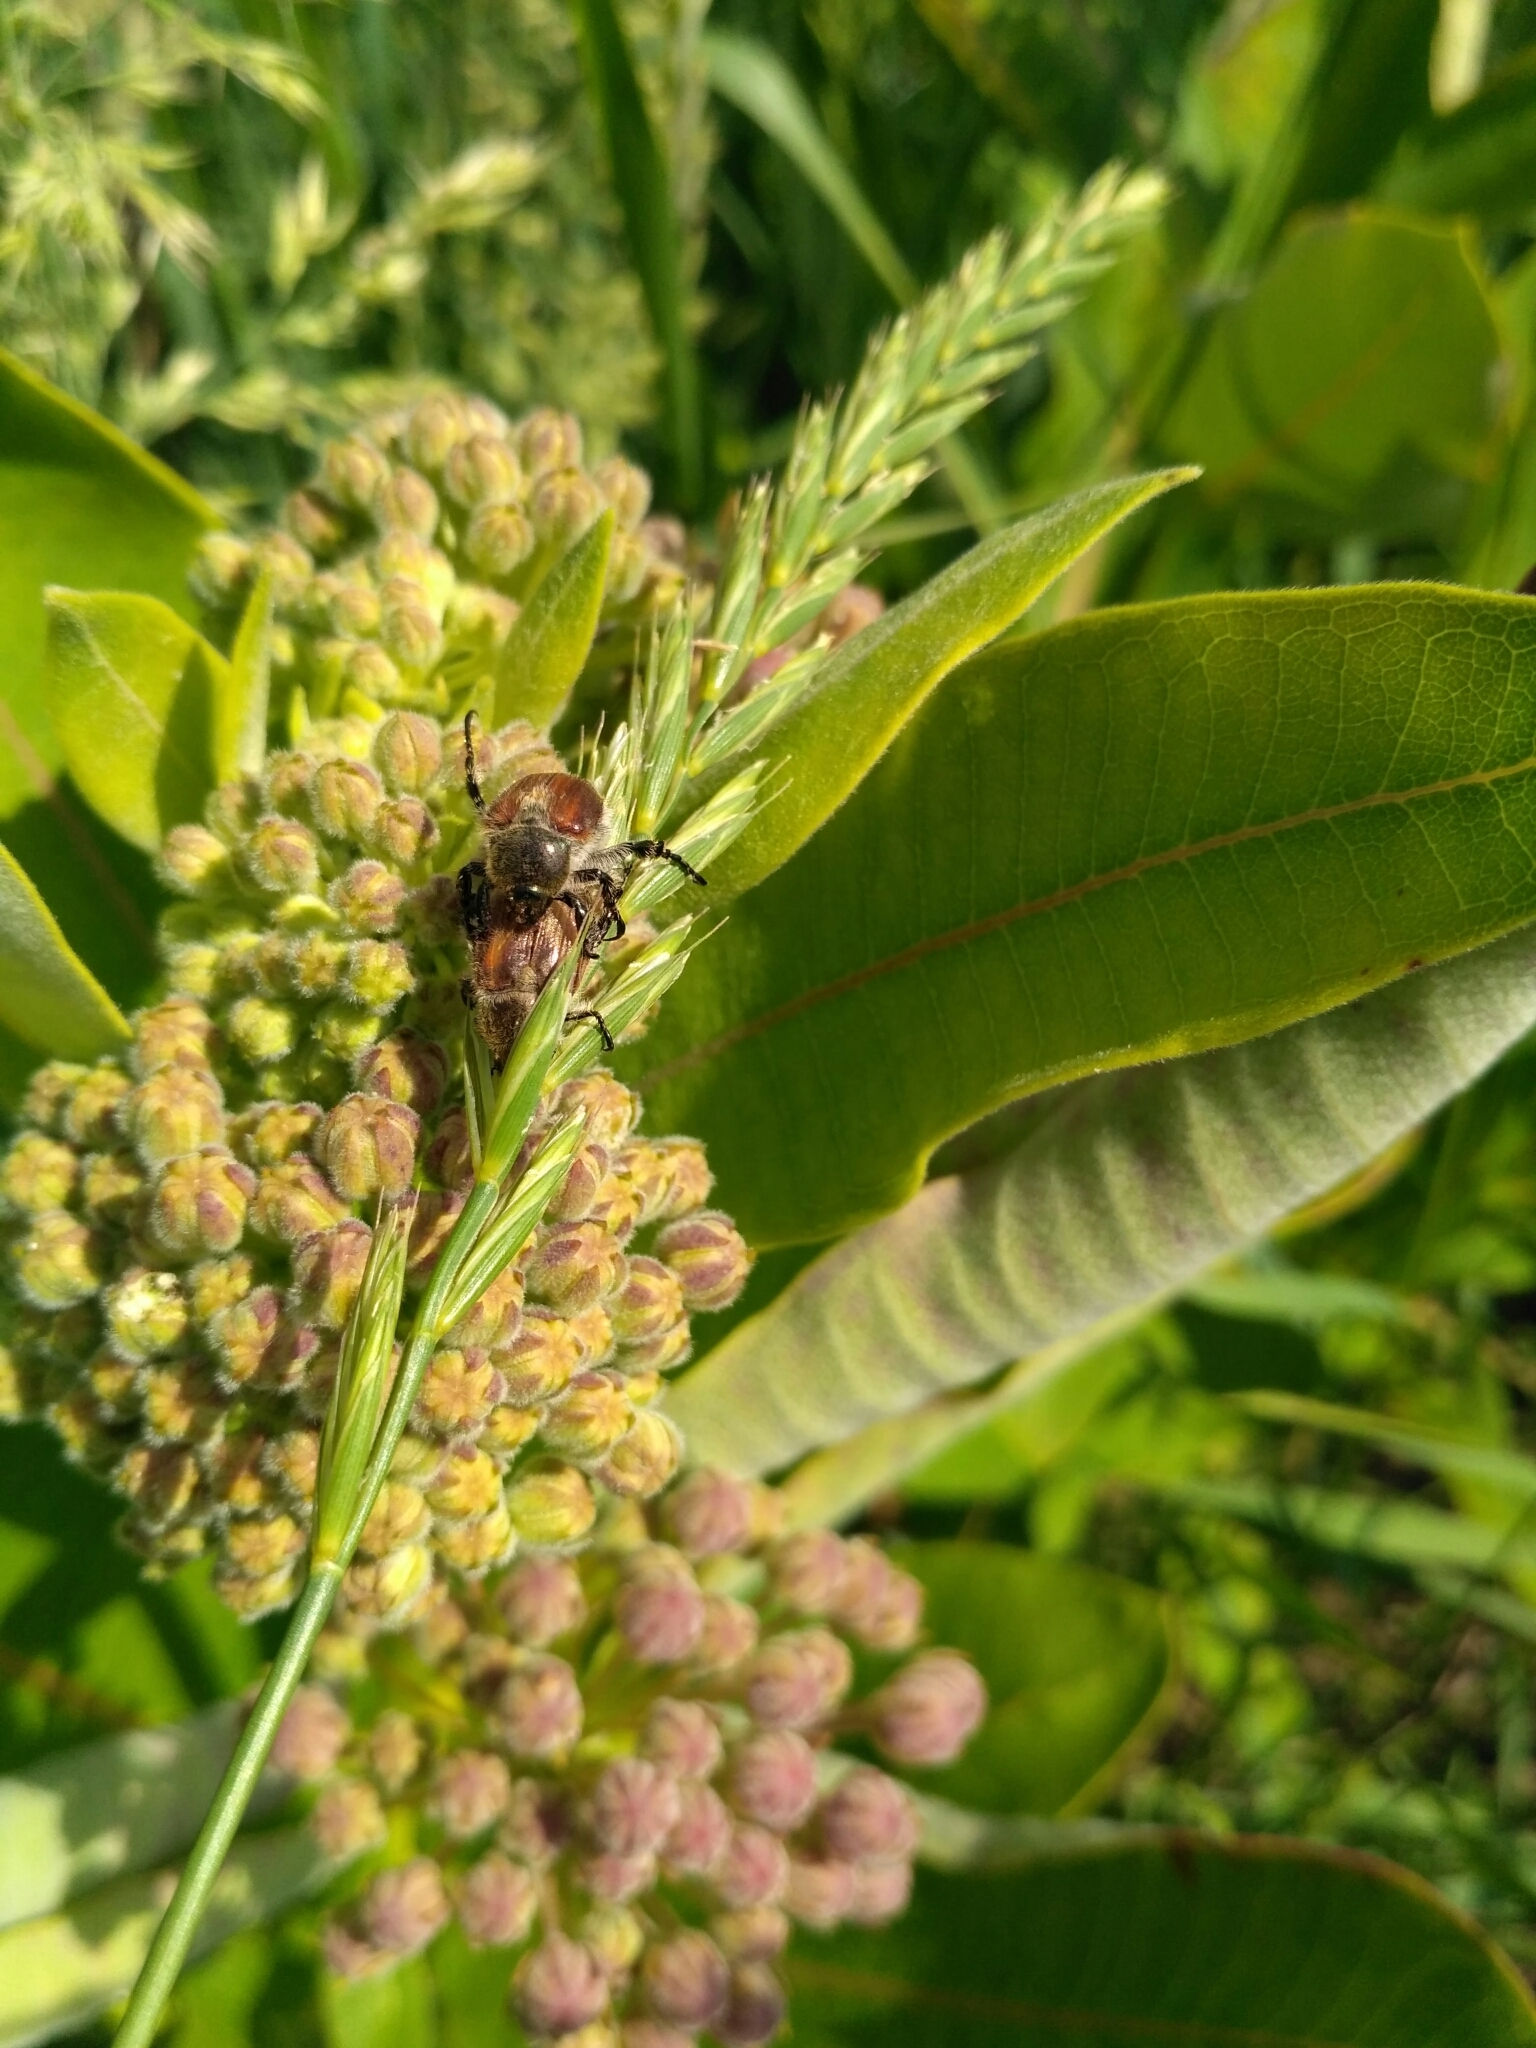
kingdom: Animalia
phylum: Arthropoda
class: Insecta
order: Coleoptera
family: Scarabaeidae
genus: Chaetopteroplia
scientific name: Chaetopteroplia segetum
